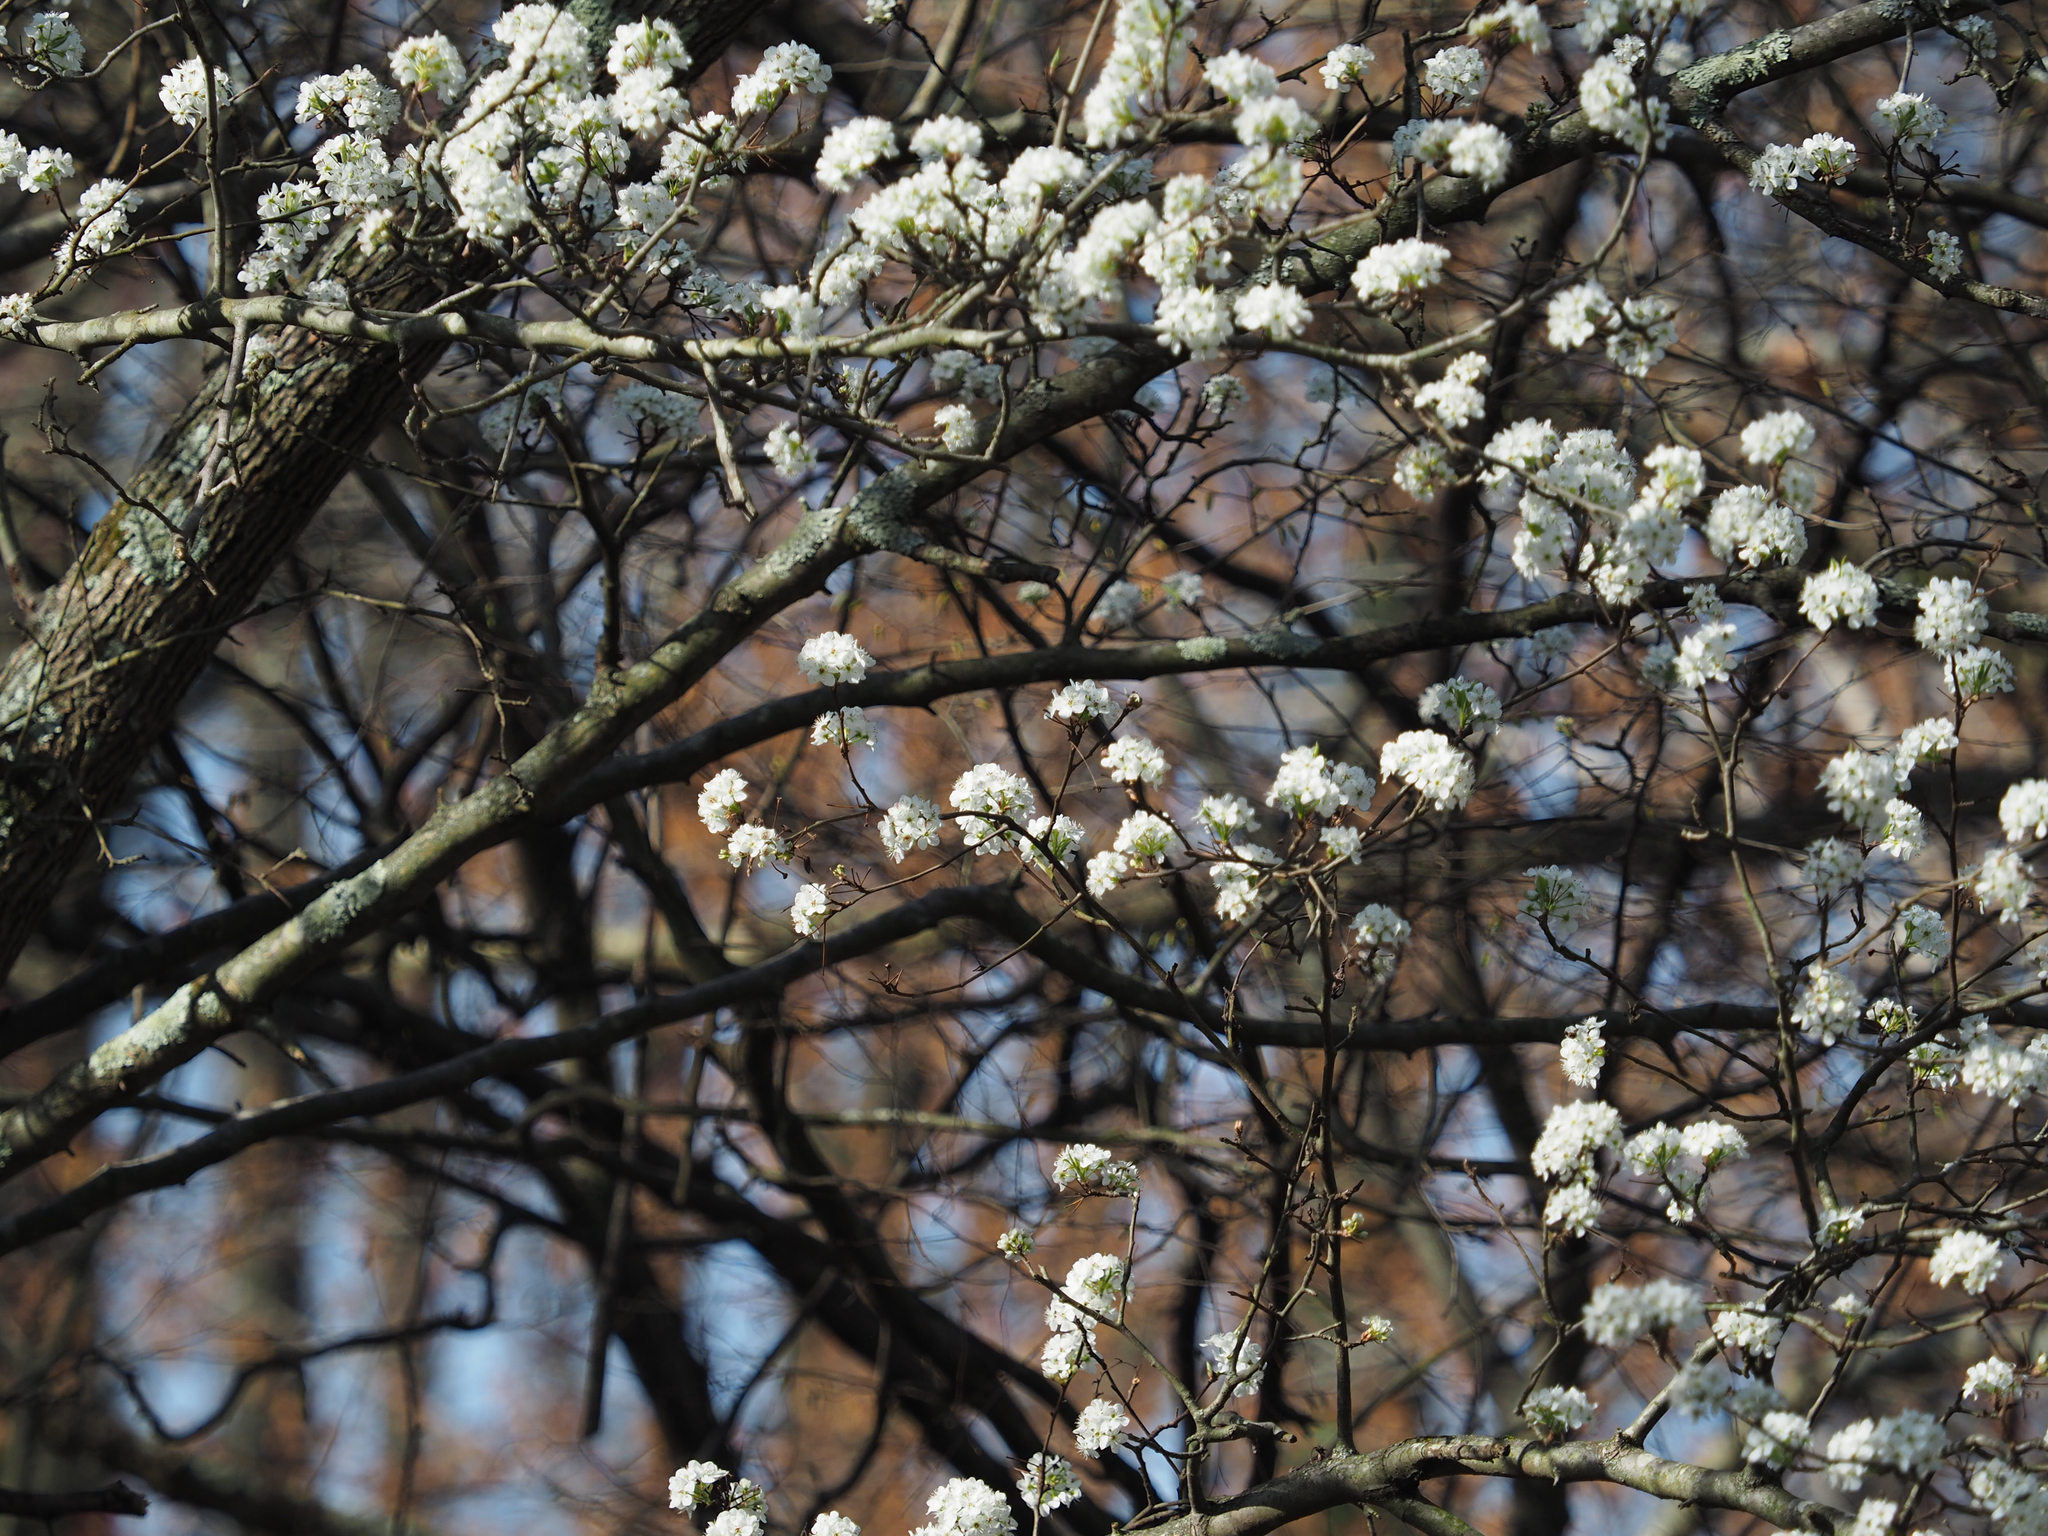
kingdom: Plantae
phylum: Tracheophyta
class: Magnoliopsida
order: Rosales
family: Rosaceae
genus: Pyrus
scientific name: Pyrus calleryana
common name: Callery pear
